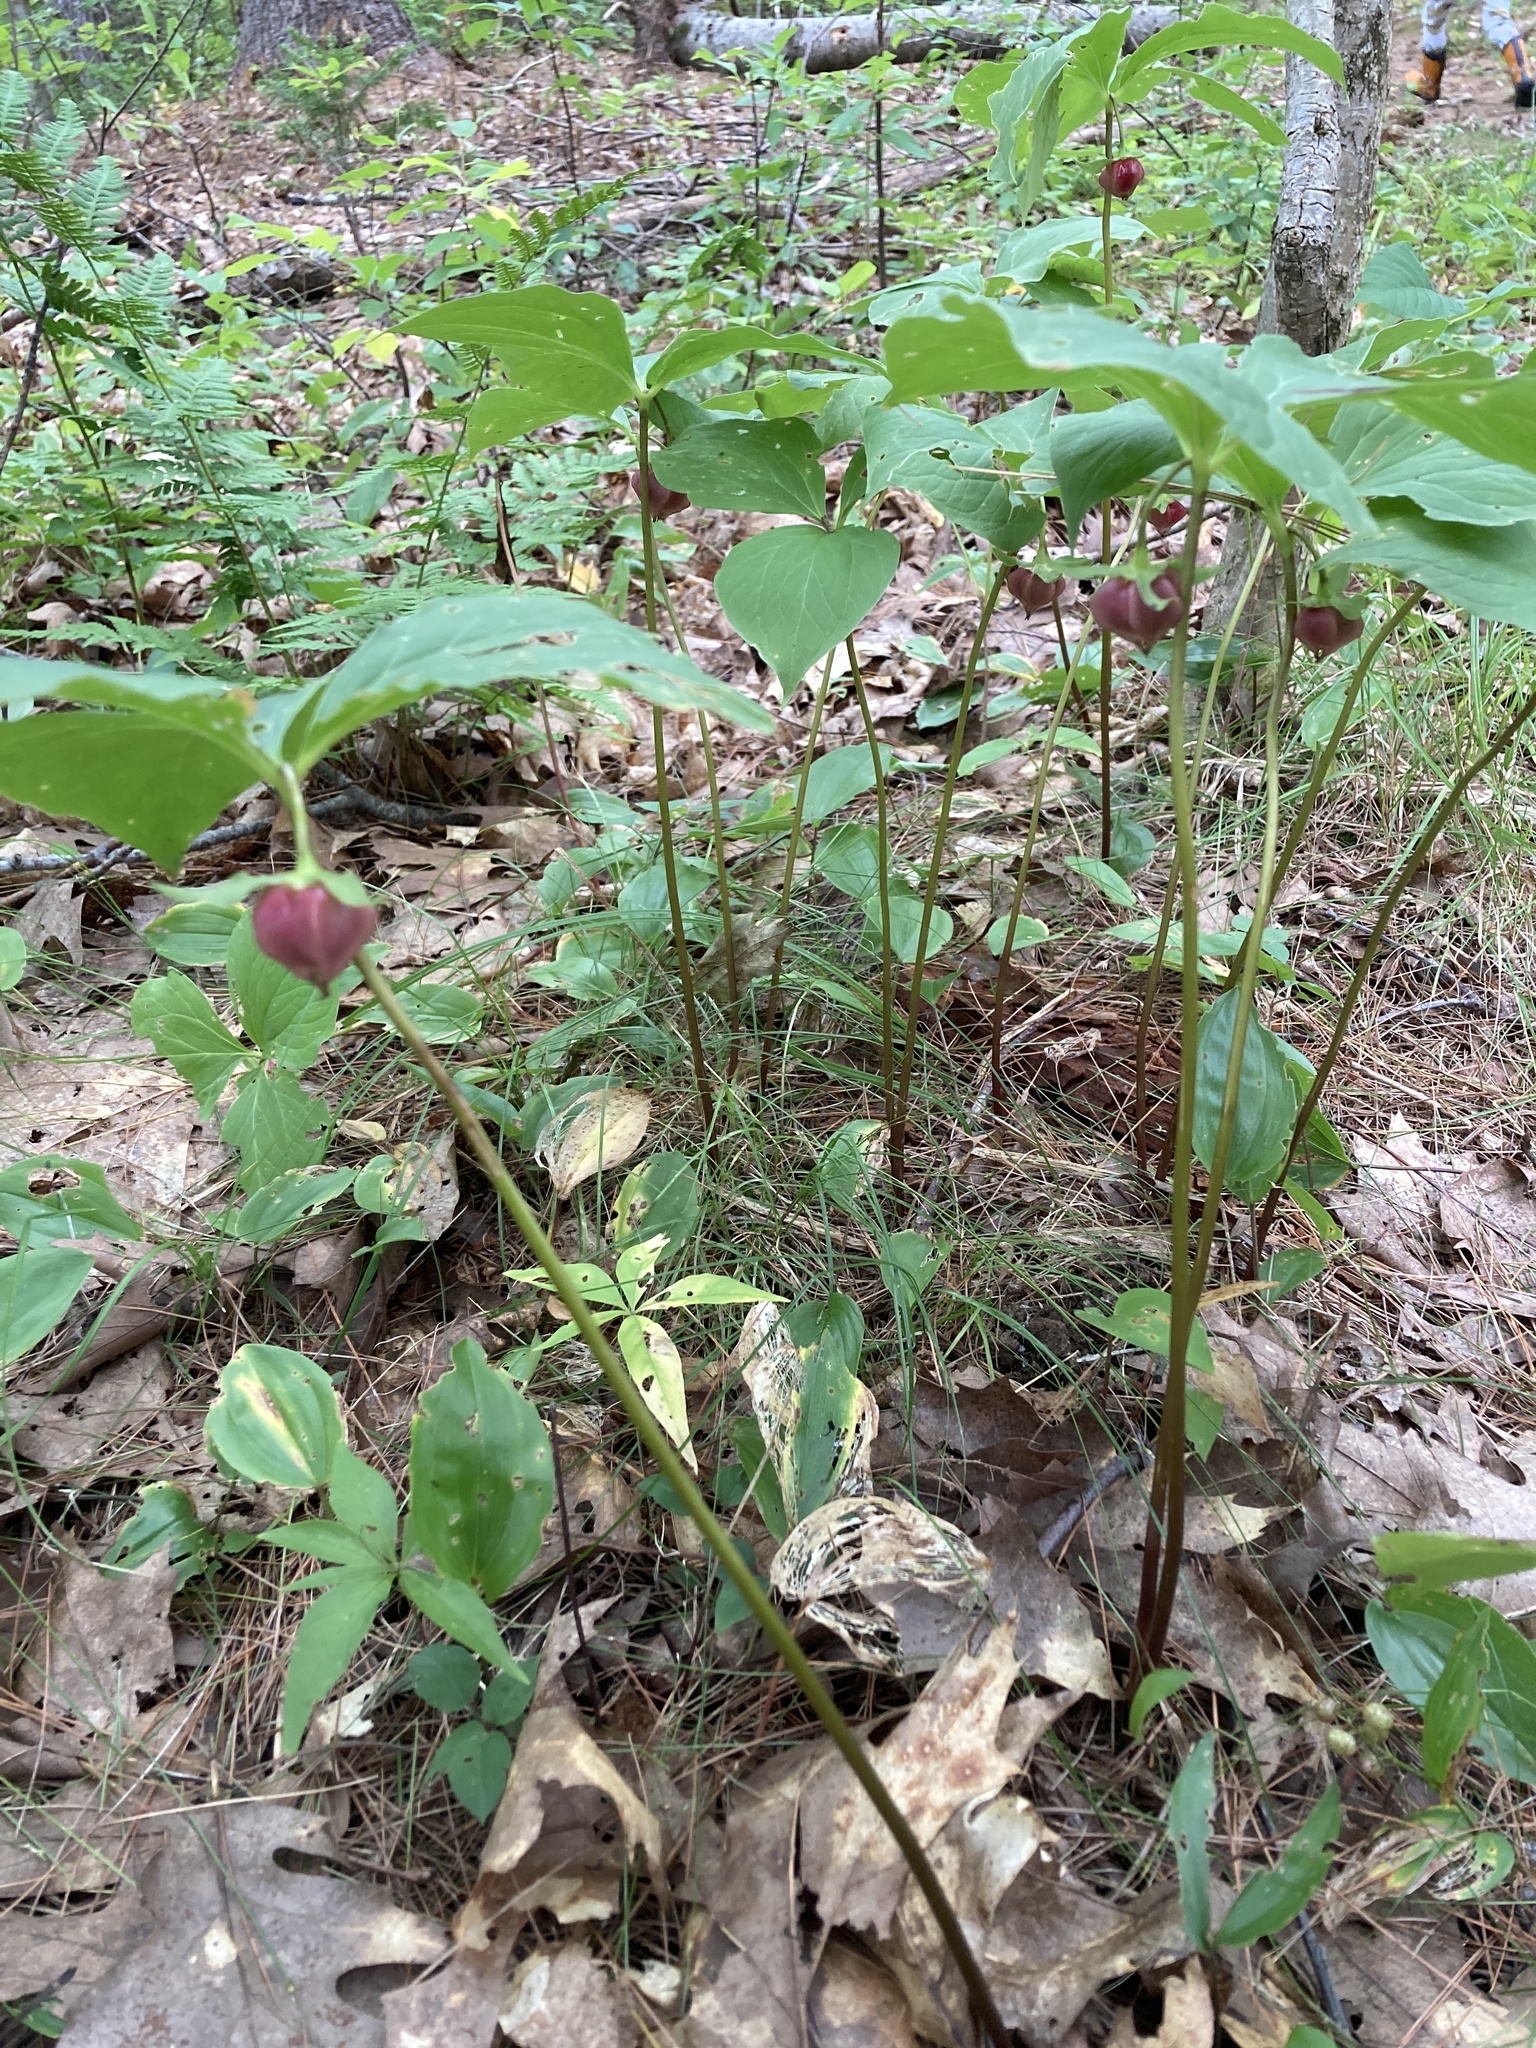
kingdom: Plantae
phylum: Tracheophyta
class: Liliopsida
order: Liliales
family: Melanthiaceae
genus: Trillium
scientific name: Trillium cernuum
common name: Nodding trillium
